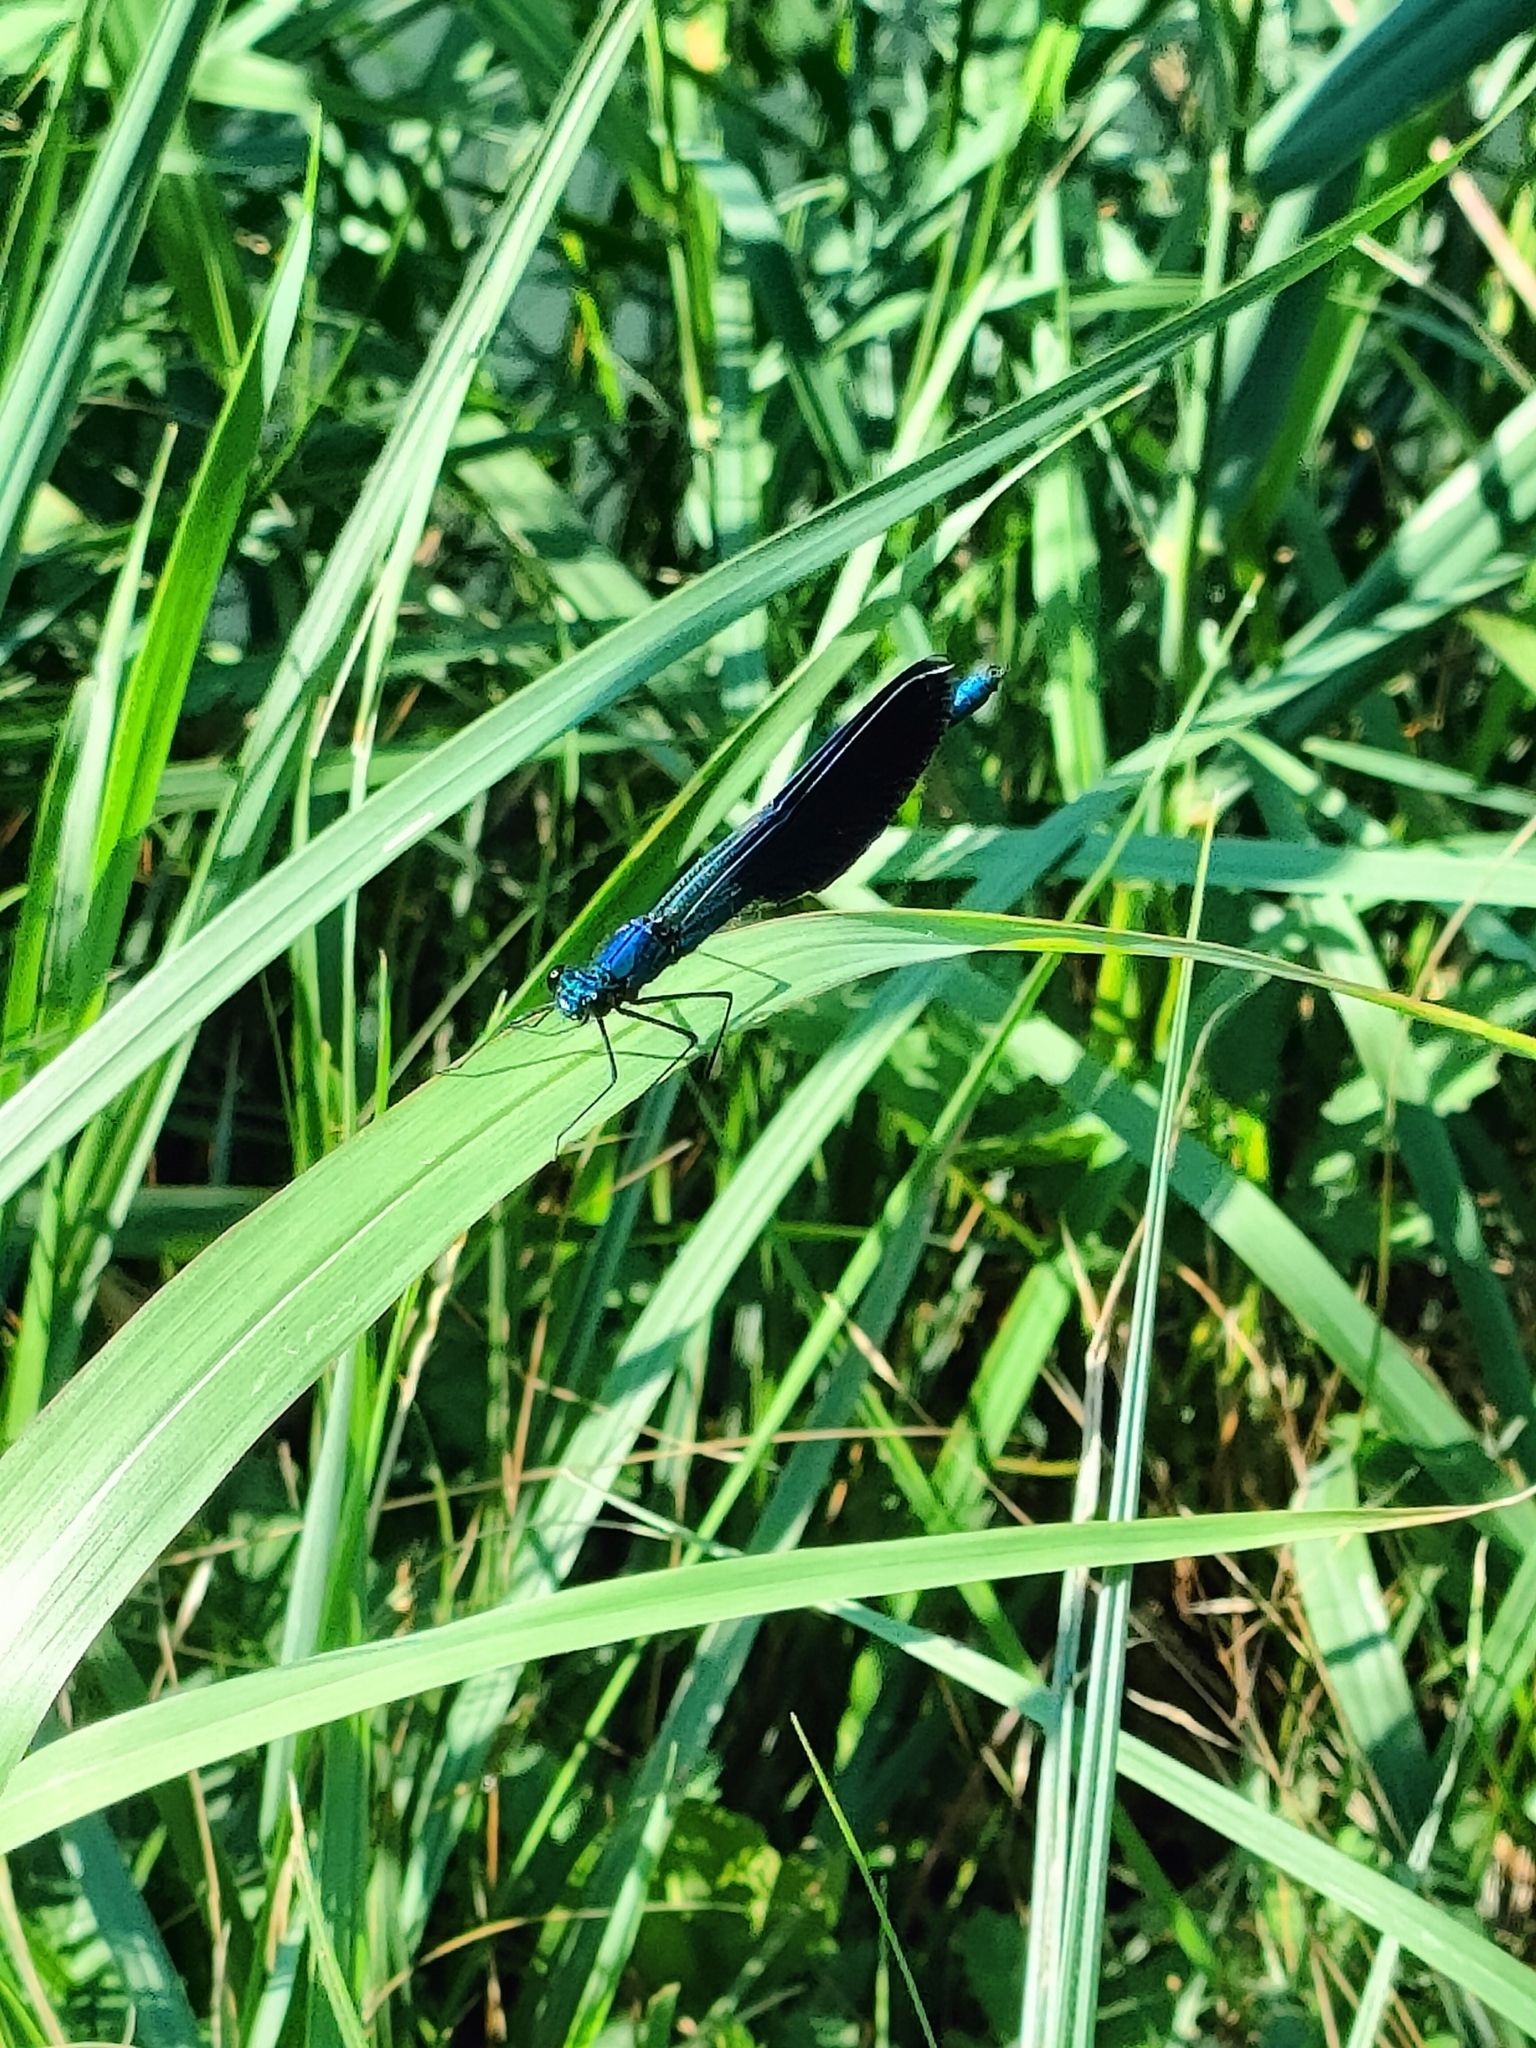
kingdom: Animalia
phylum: Arthropoda
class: Insecta
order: Odonata
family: Calopterygidae
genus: Calopteryx
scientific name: Calopteryx splendens
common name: Banded demoiselle
